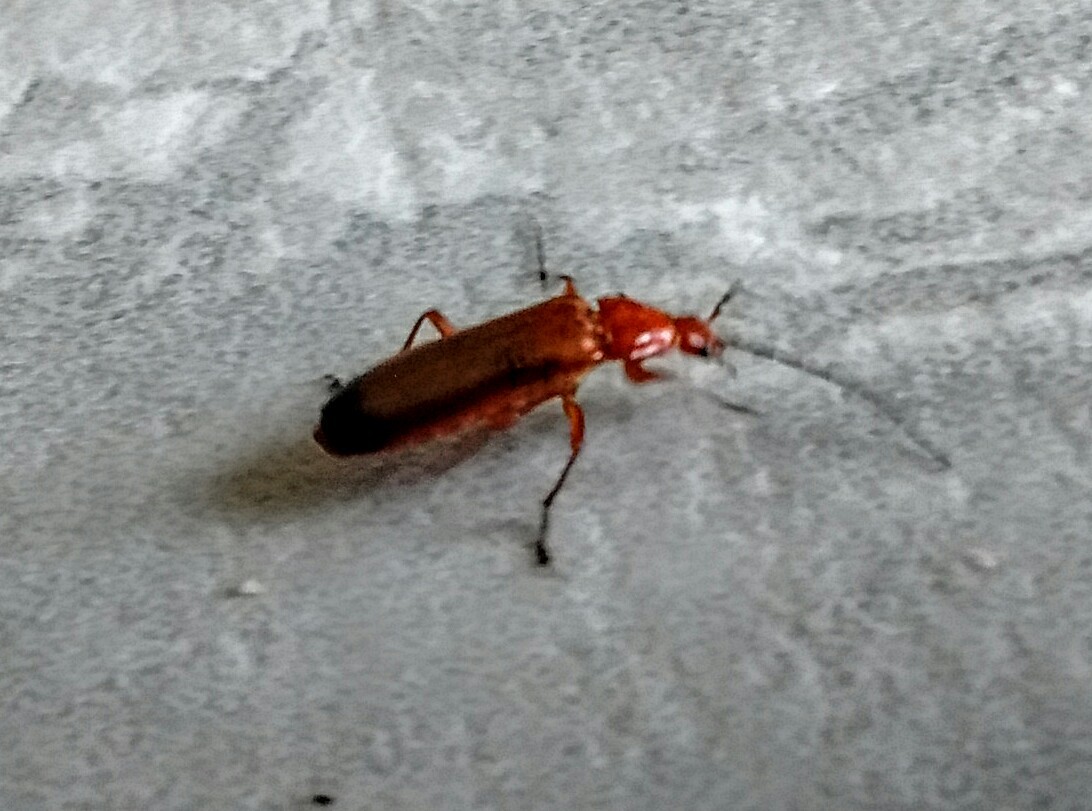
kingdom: Animalia
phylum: Arthropoda
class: Insecta
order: Coleoptera
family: Cantharidae
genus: Rhagonycha
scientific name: Rhagonycha fulva
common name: Common red soldier beetle
